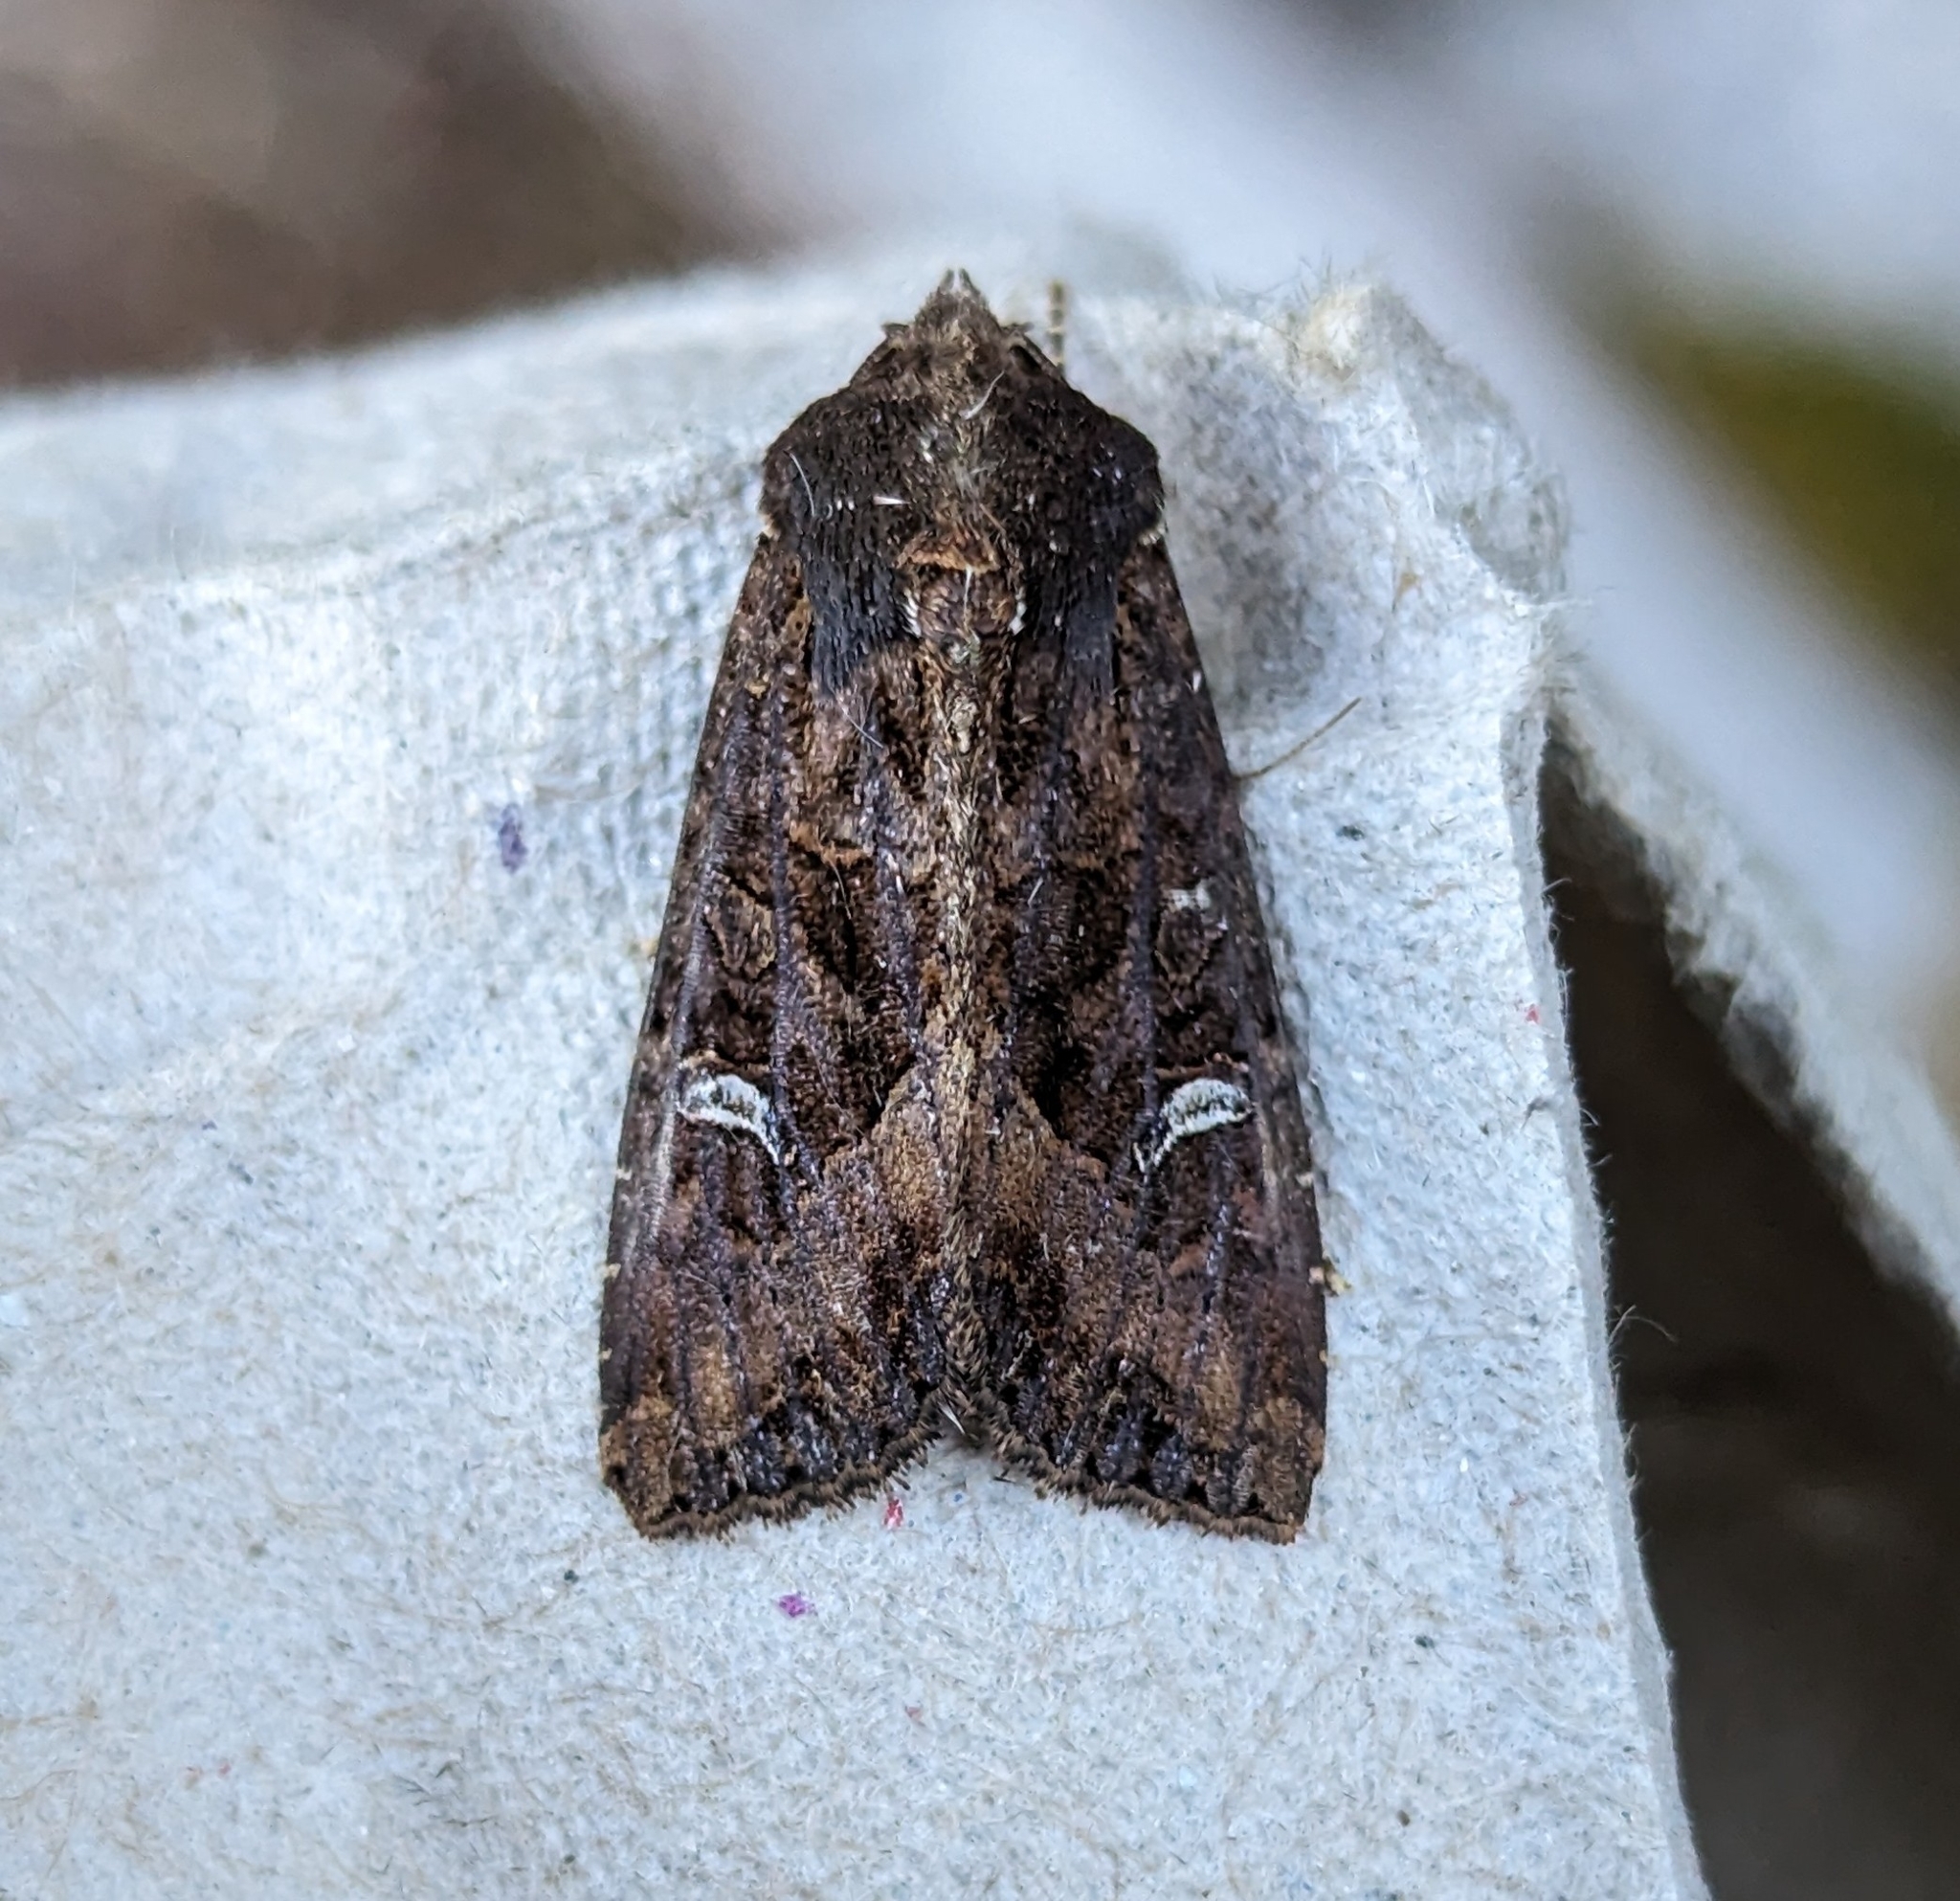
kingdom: Animalia
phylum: Arthropoda
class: Insecta
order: Lepidoptera
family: Noctuidae
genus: Helotropha
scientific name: Helotropha reniformis
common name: Kidney-spotted rustic moth
